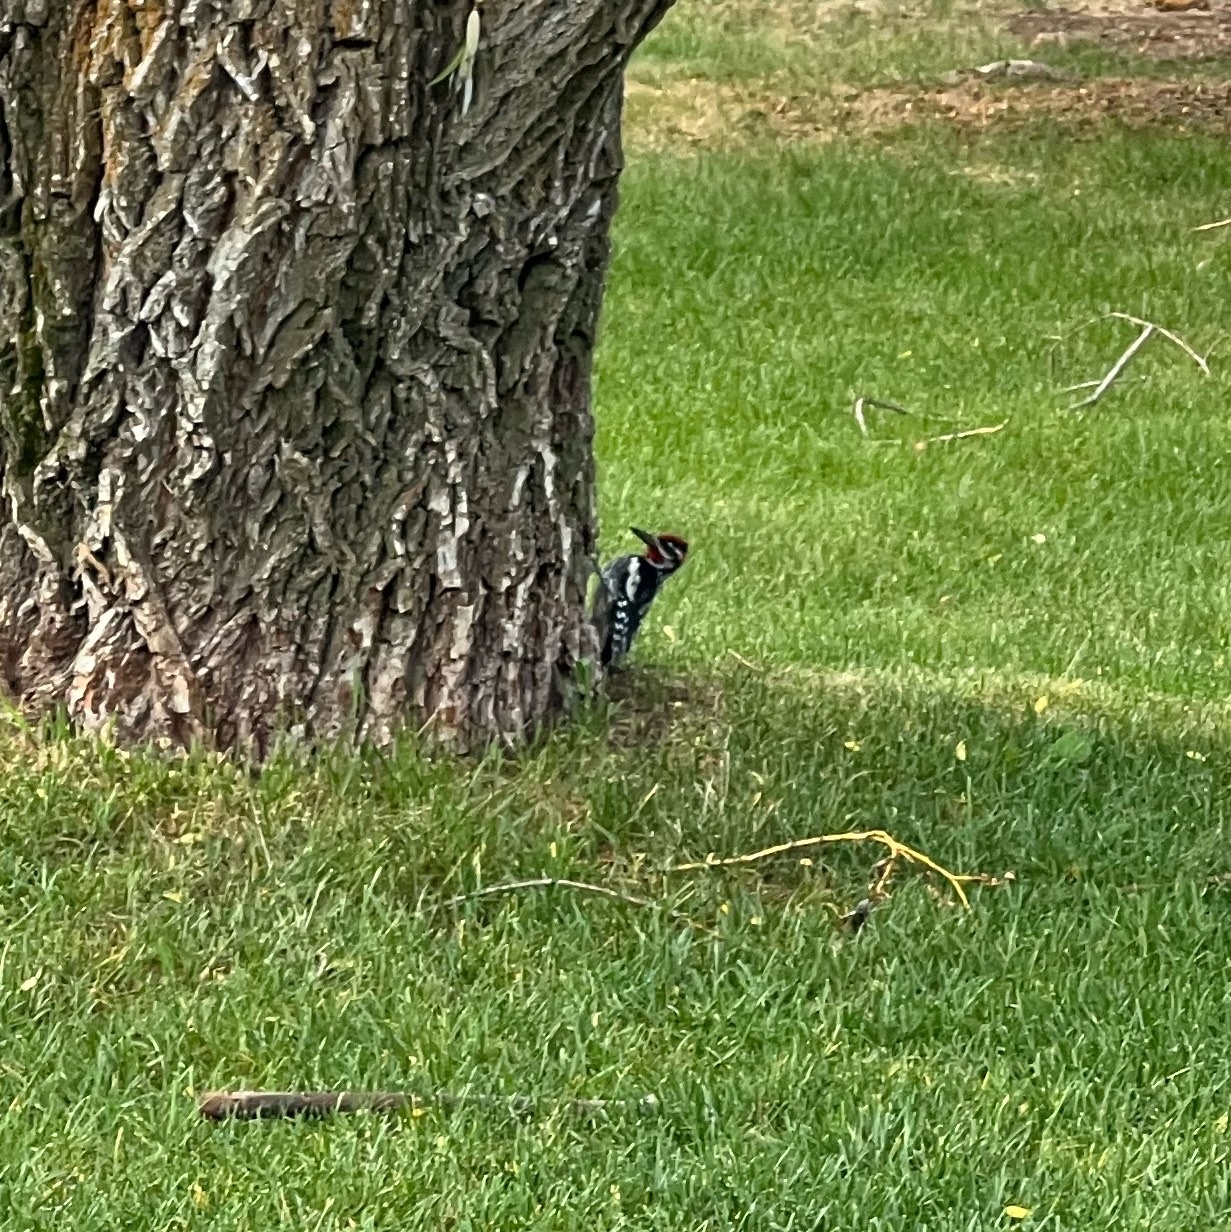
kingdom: Animalia
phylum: Chordata
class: Aves
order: Piciformes
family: Picidae
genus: Sphyrapicus
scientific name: Sphyrapicus nuchalis
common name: Red-naped sapsucker
